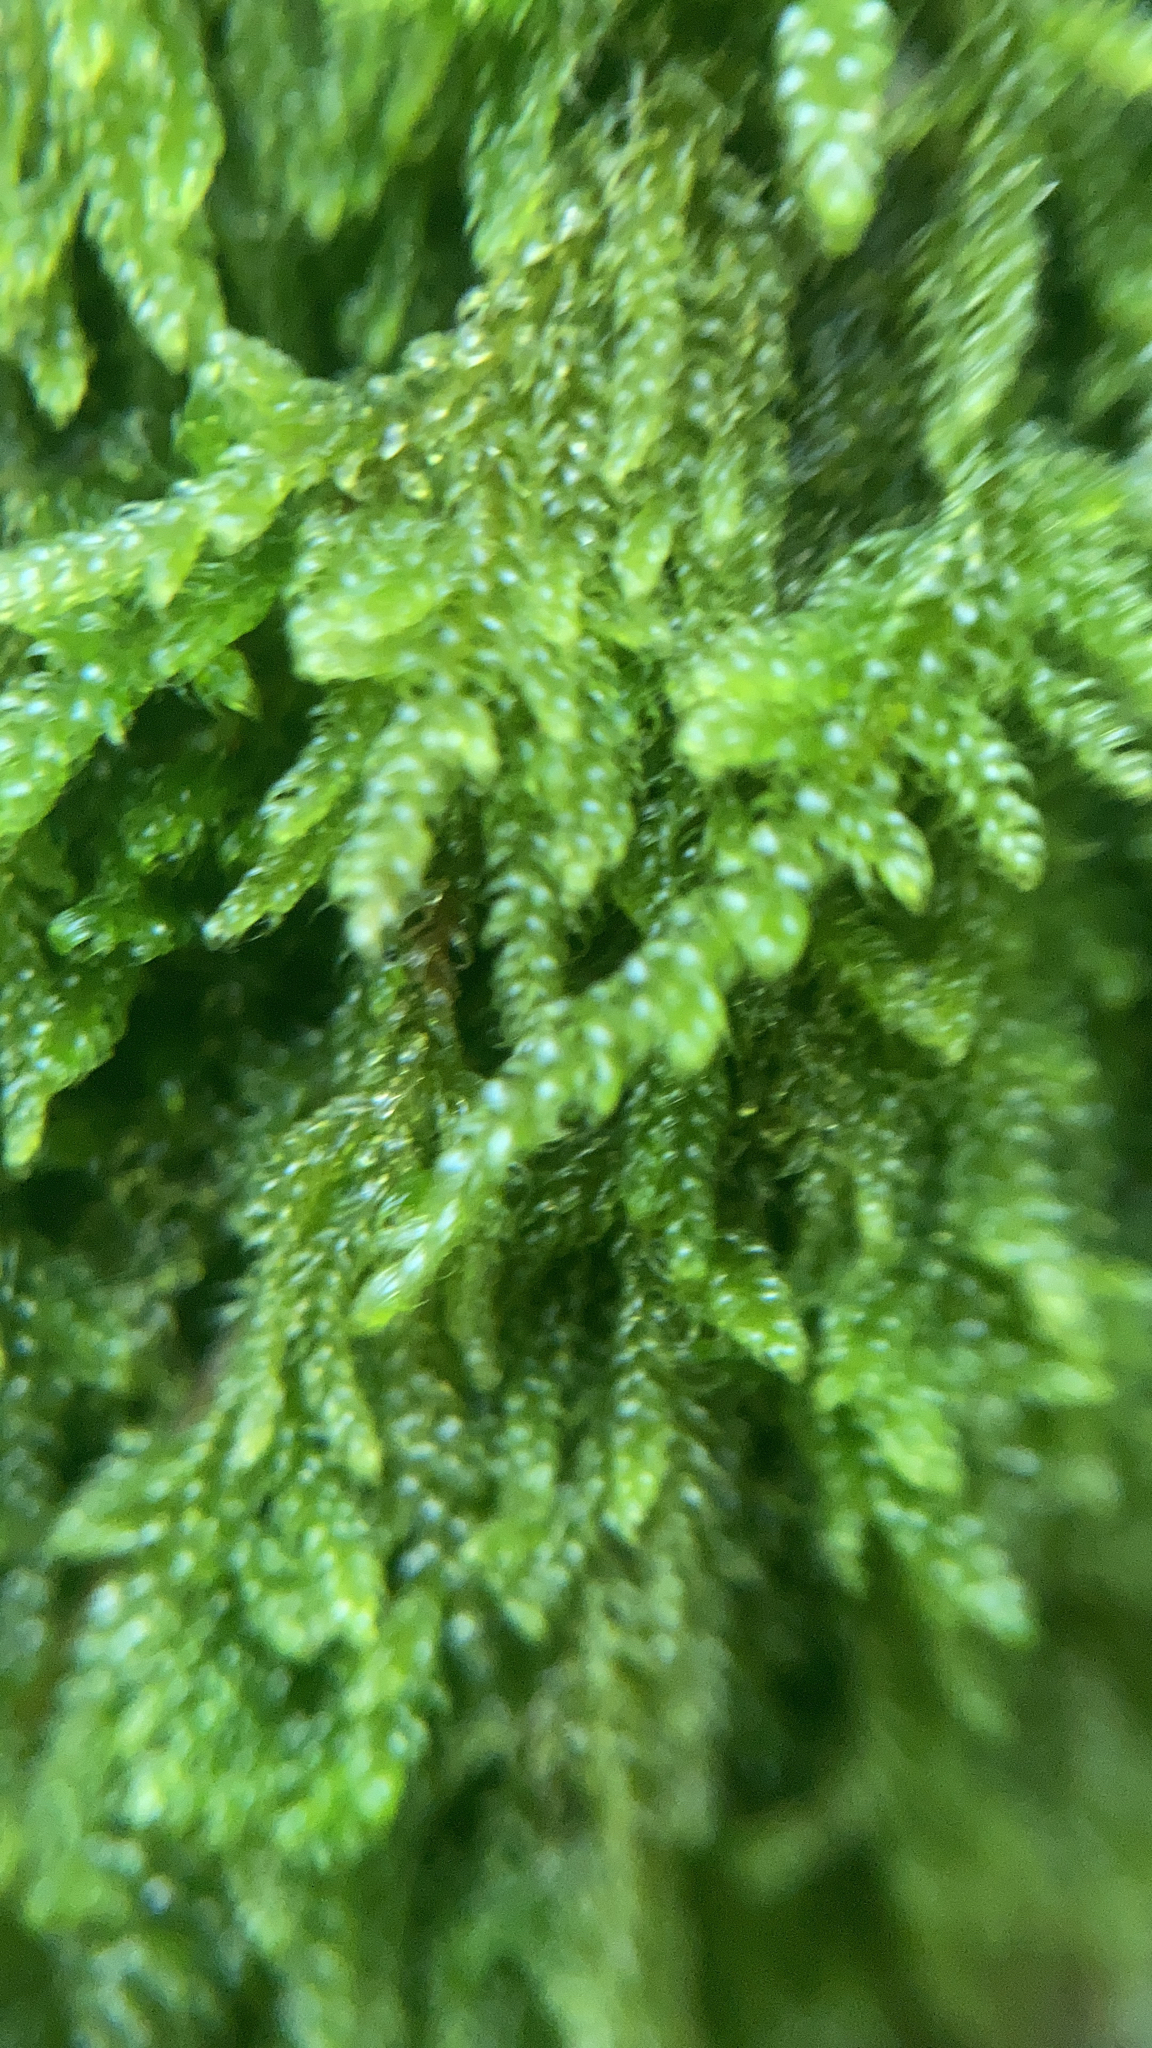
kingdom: Plantae
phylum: Bryophyta
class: Bryopsida
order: Hypnales
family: Hypnaceae
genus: Hypnum
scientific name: Hypnum cupressiforme
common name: Cypress-leaved plait-moss
